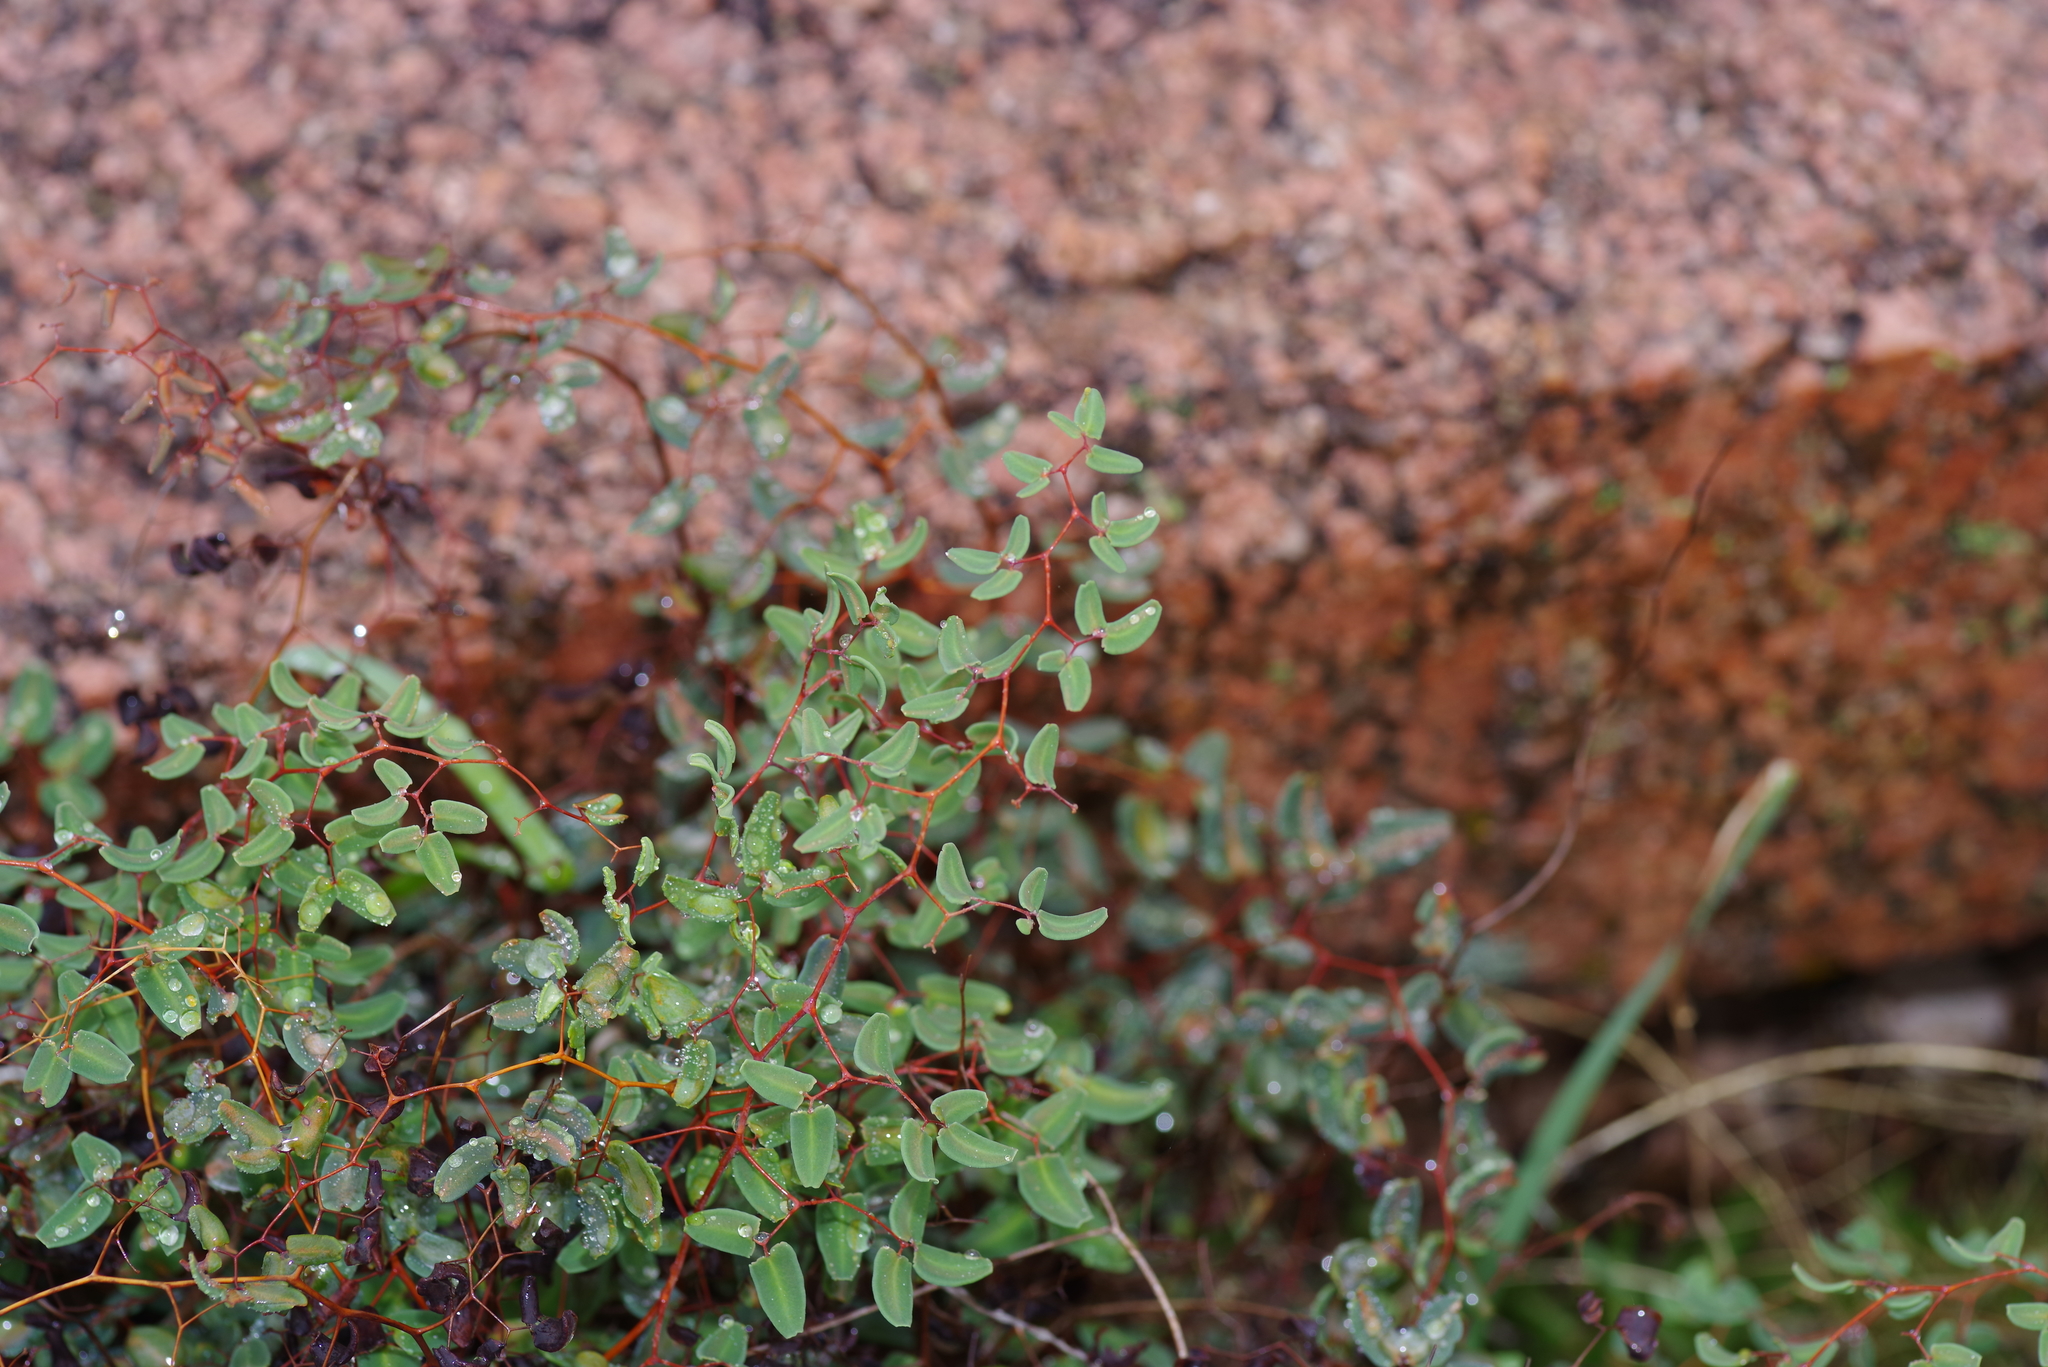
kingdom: Plantae
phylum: Tracheophyta
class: Polypodiopsida
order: Polypodiales
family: Pteridaceae
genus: Pellaea
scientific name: Pellaea ovata
